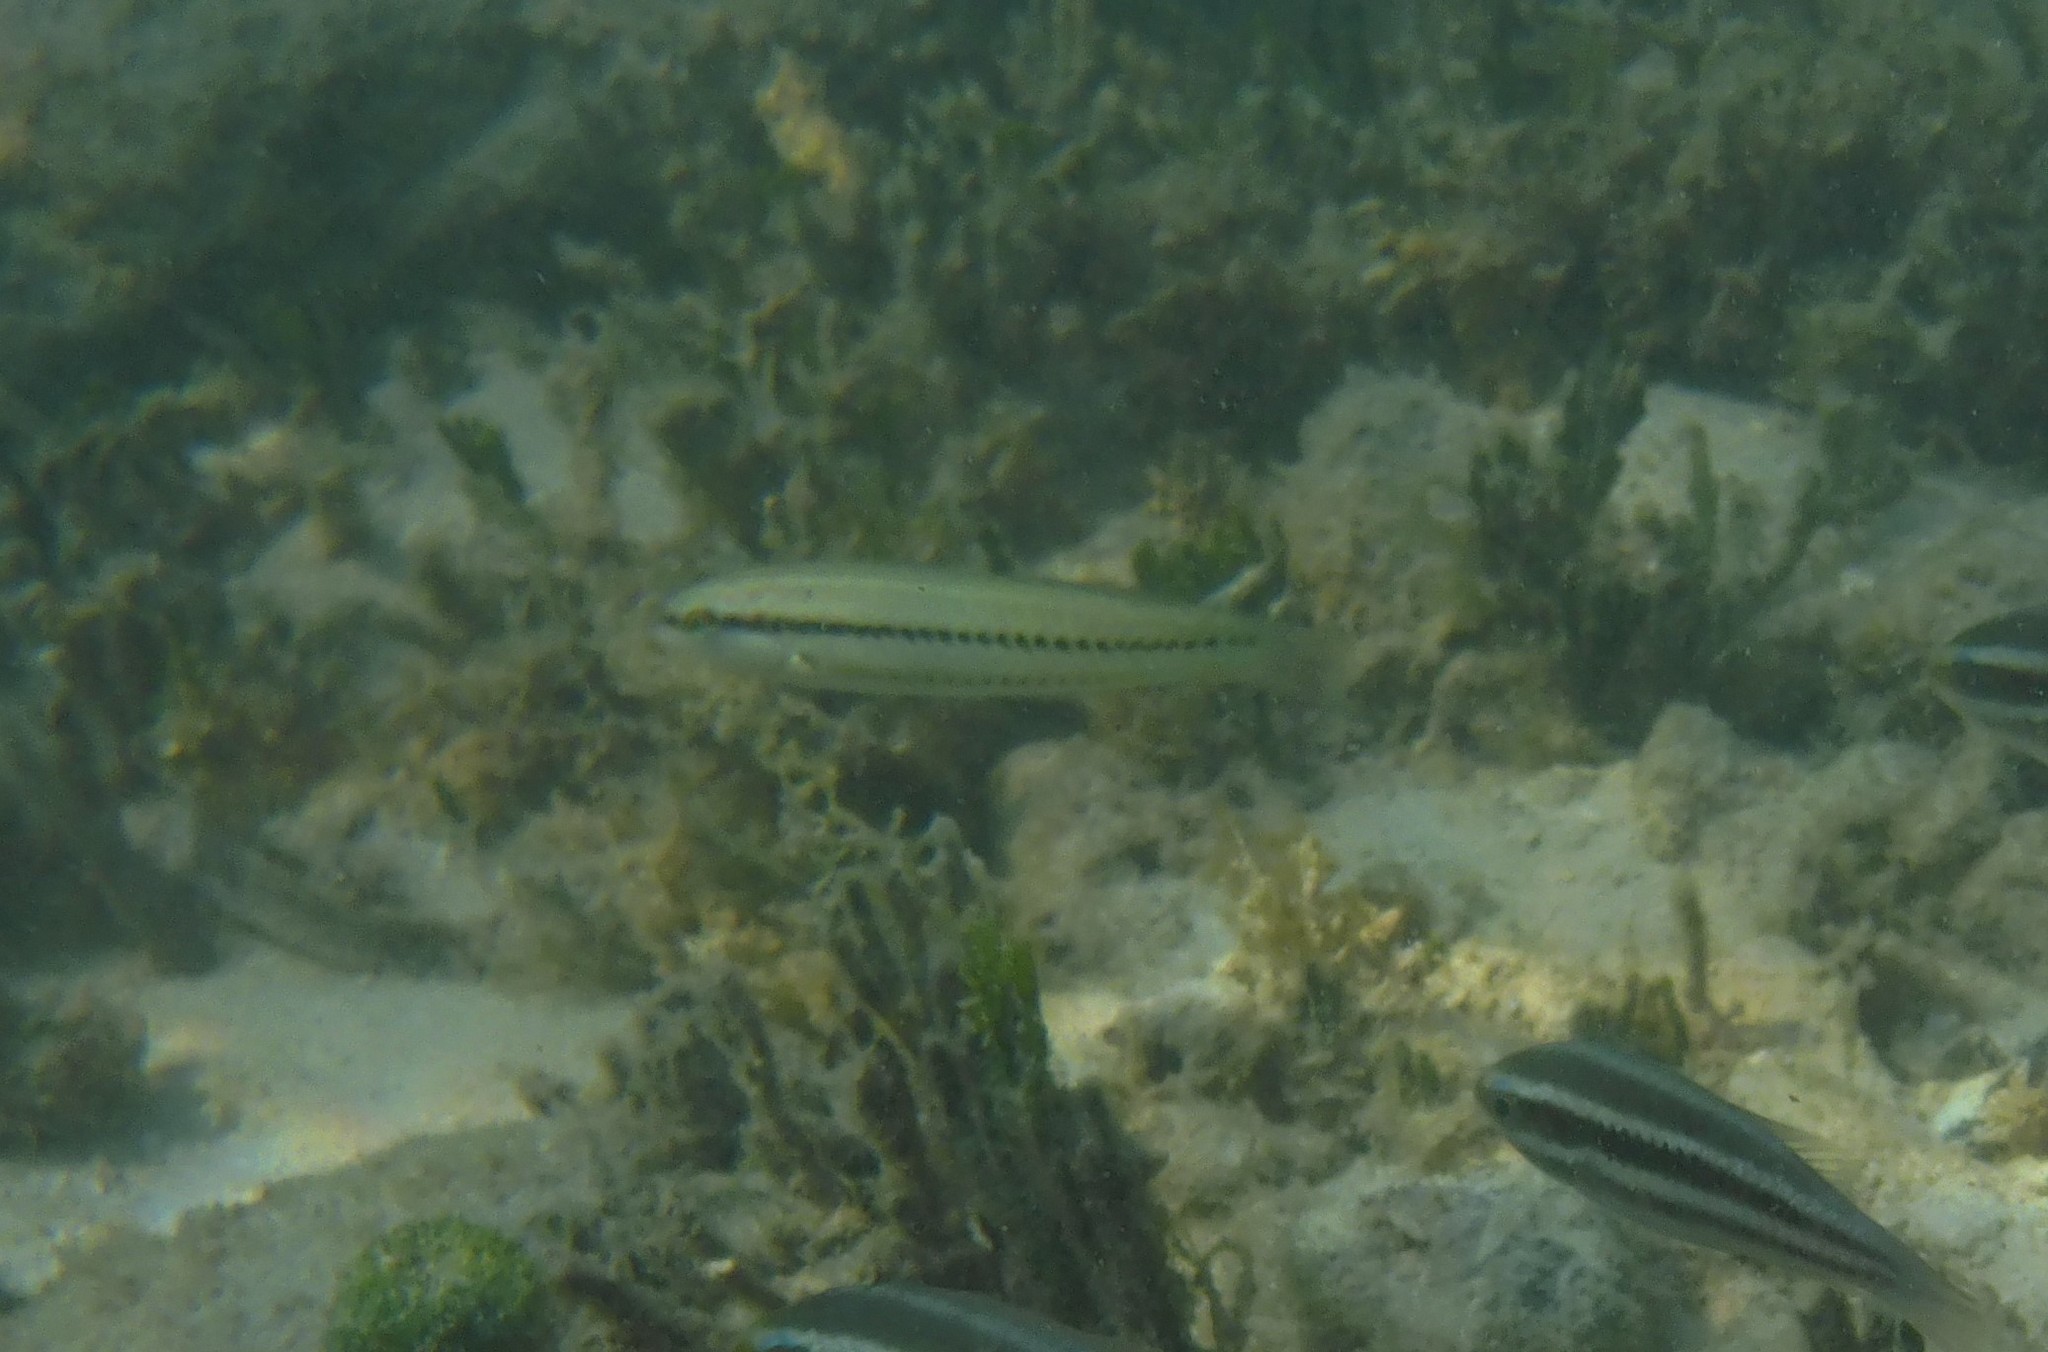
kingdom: Animalia
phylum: Chordata
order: Perciformes
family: Labridae
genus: Halichoeres
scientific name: Halichoeres bivittatus
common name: Slippery dick
